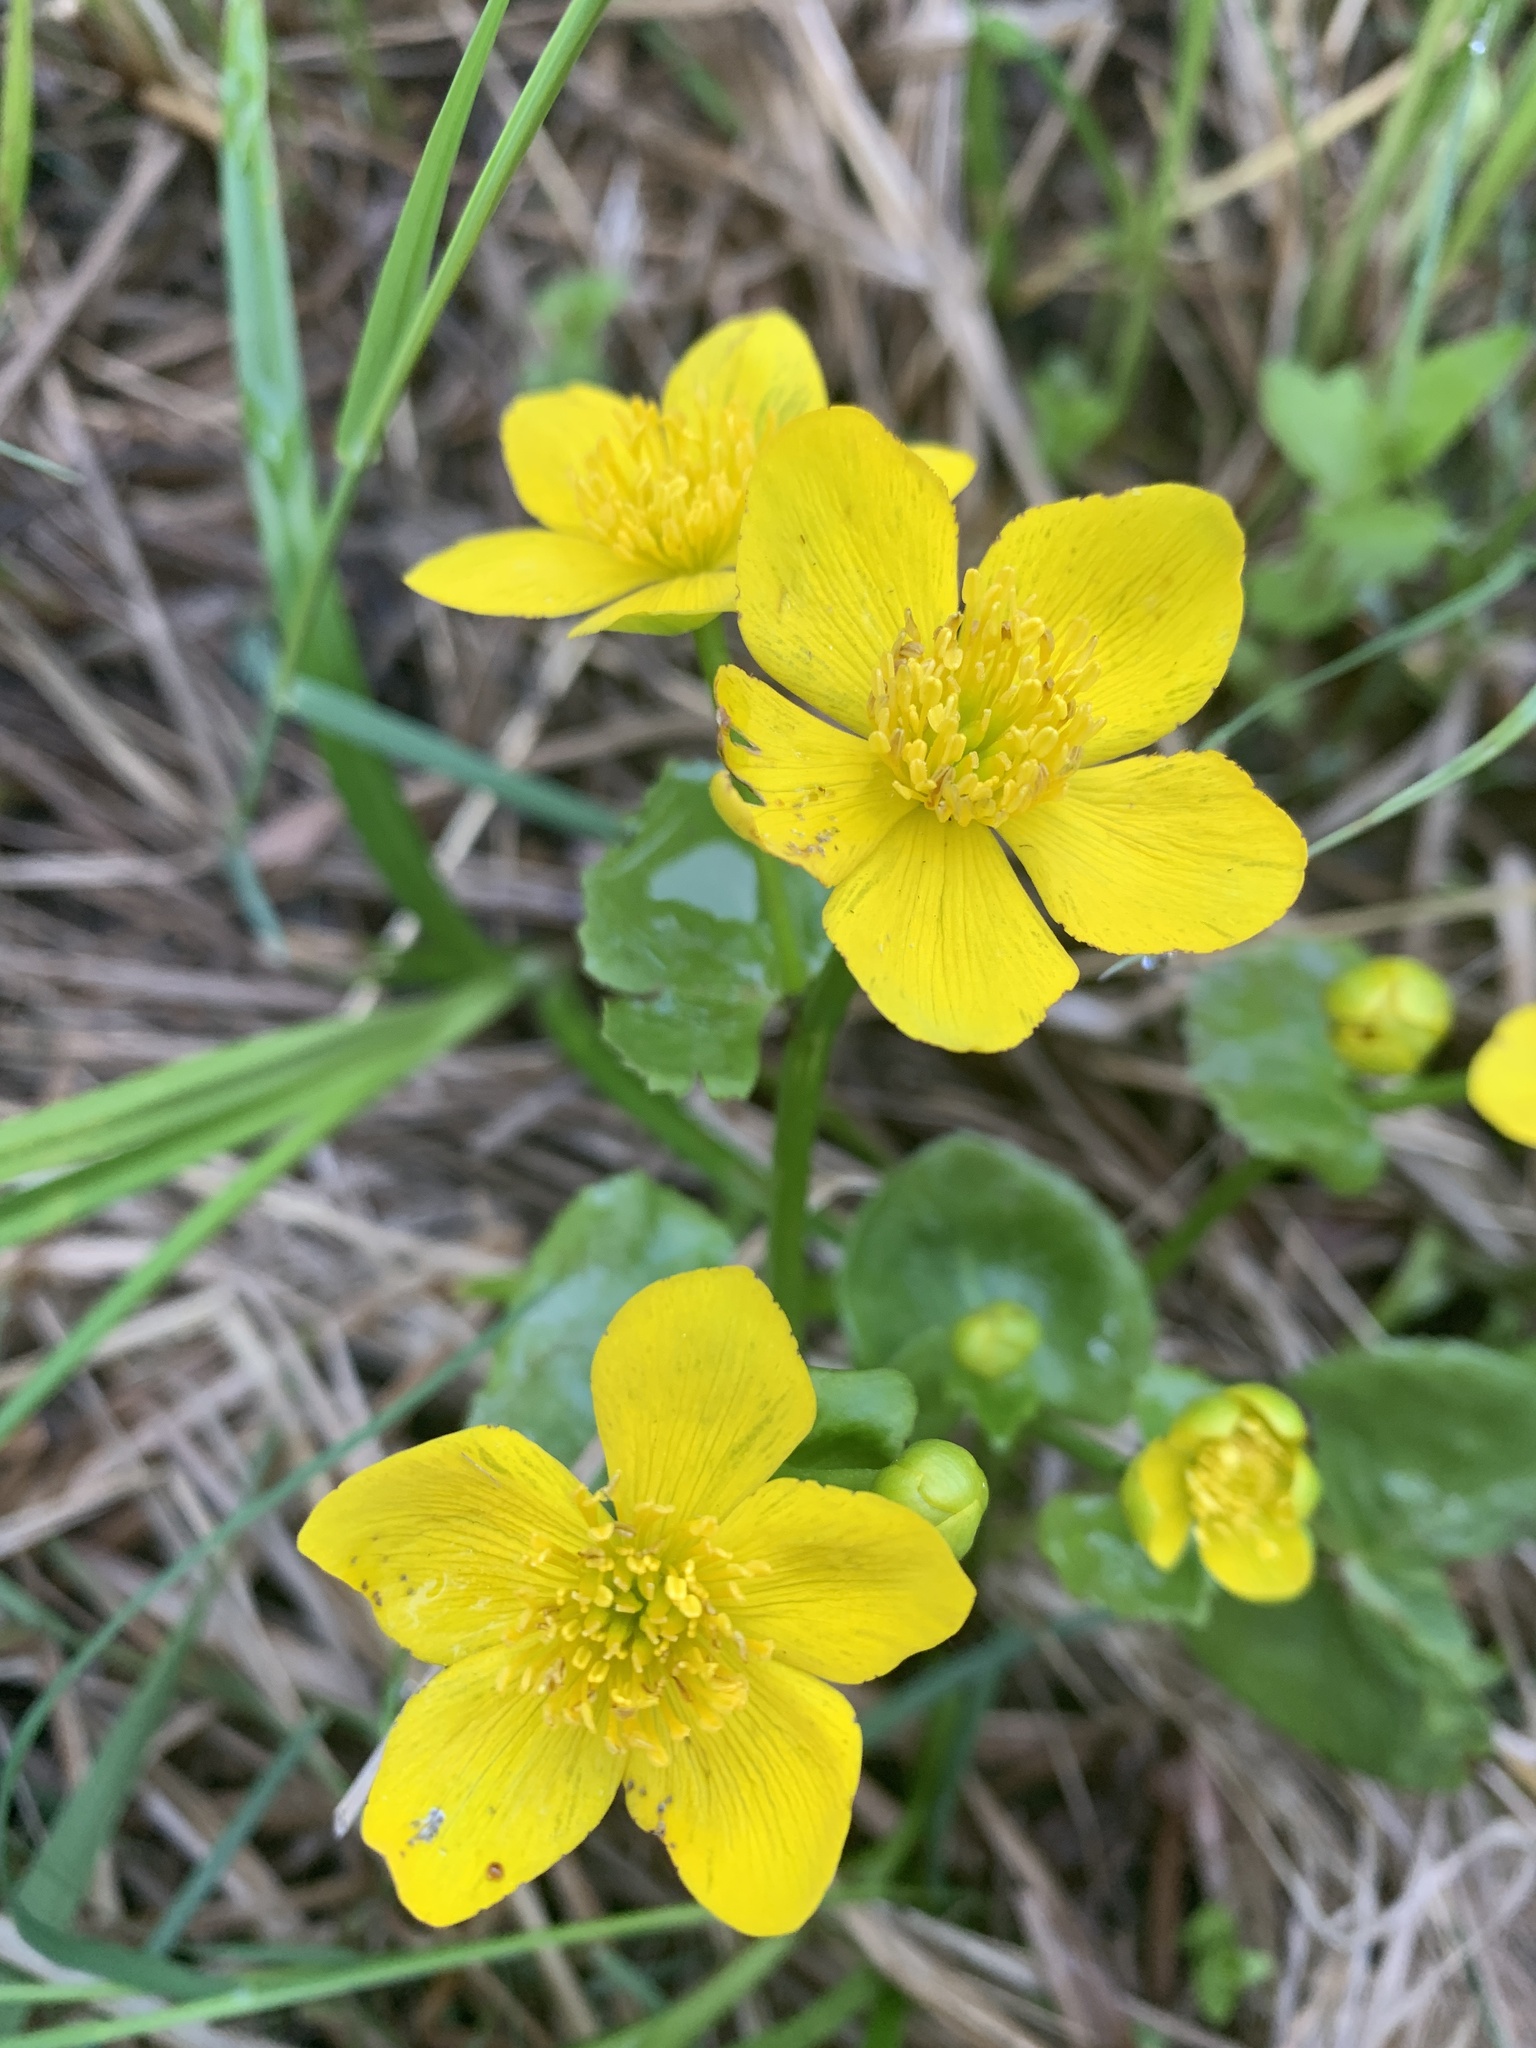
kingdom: Plantae
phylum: Tracheophyta
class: Magnoliopsida
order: Ranunculales
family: Ranunculaceae
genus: Caltha
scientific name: Caltha palustris
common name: Marsh marigold
